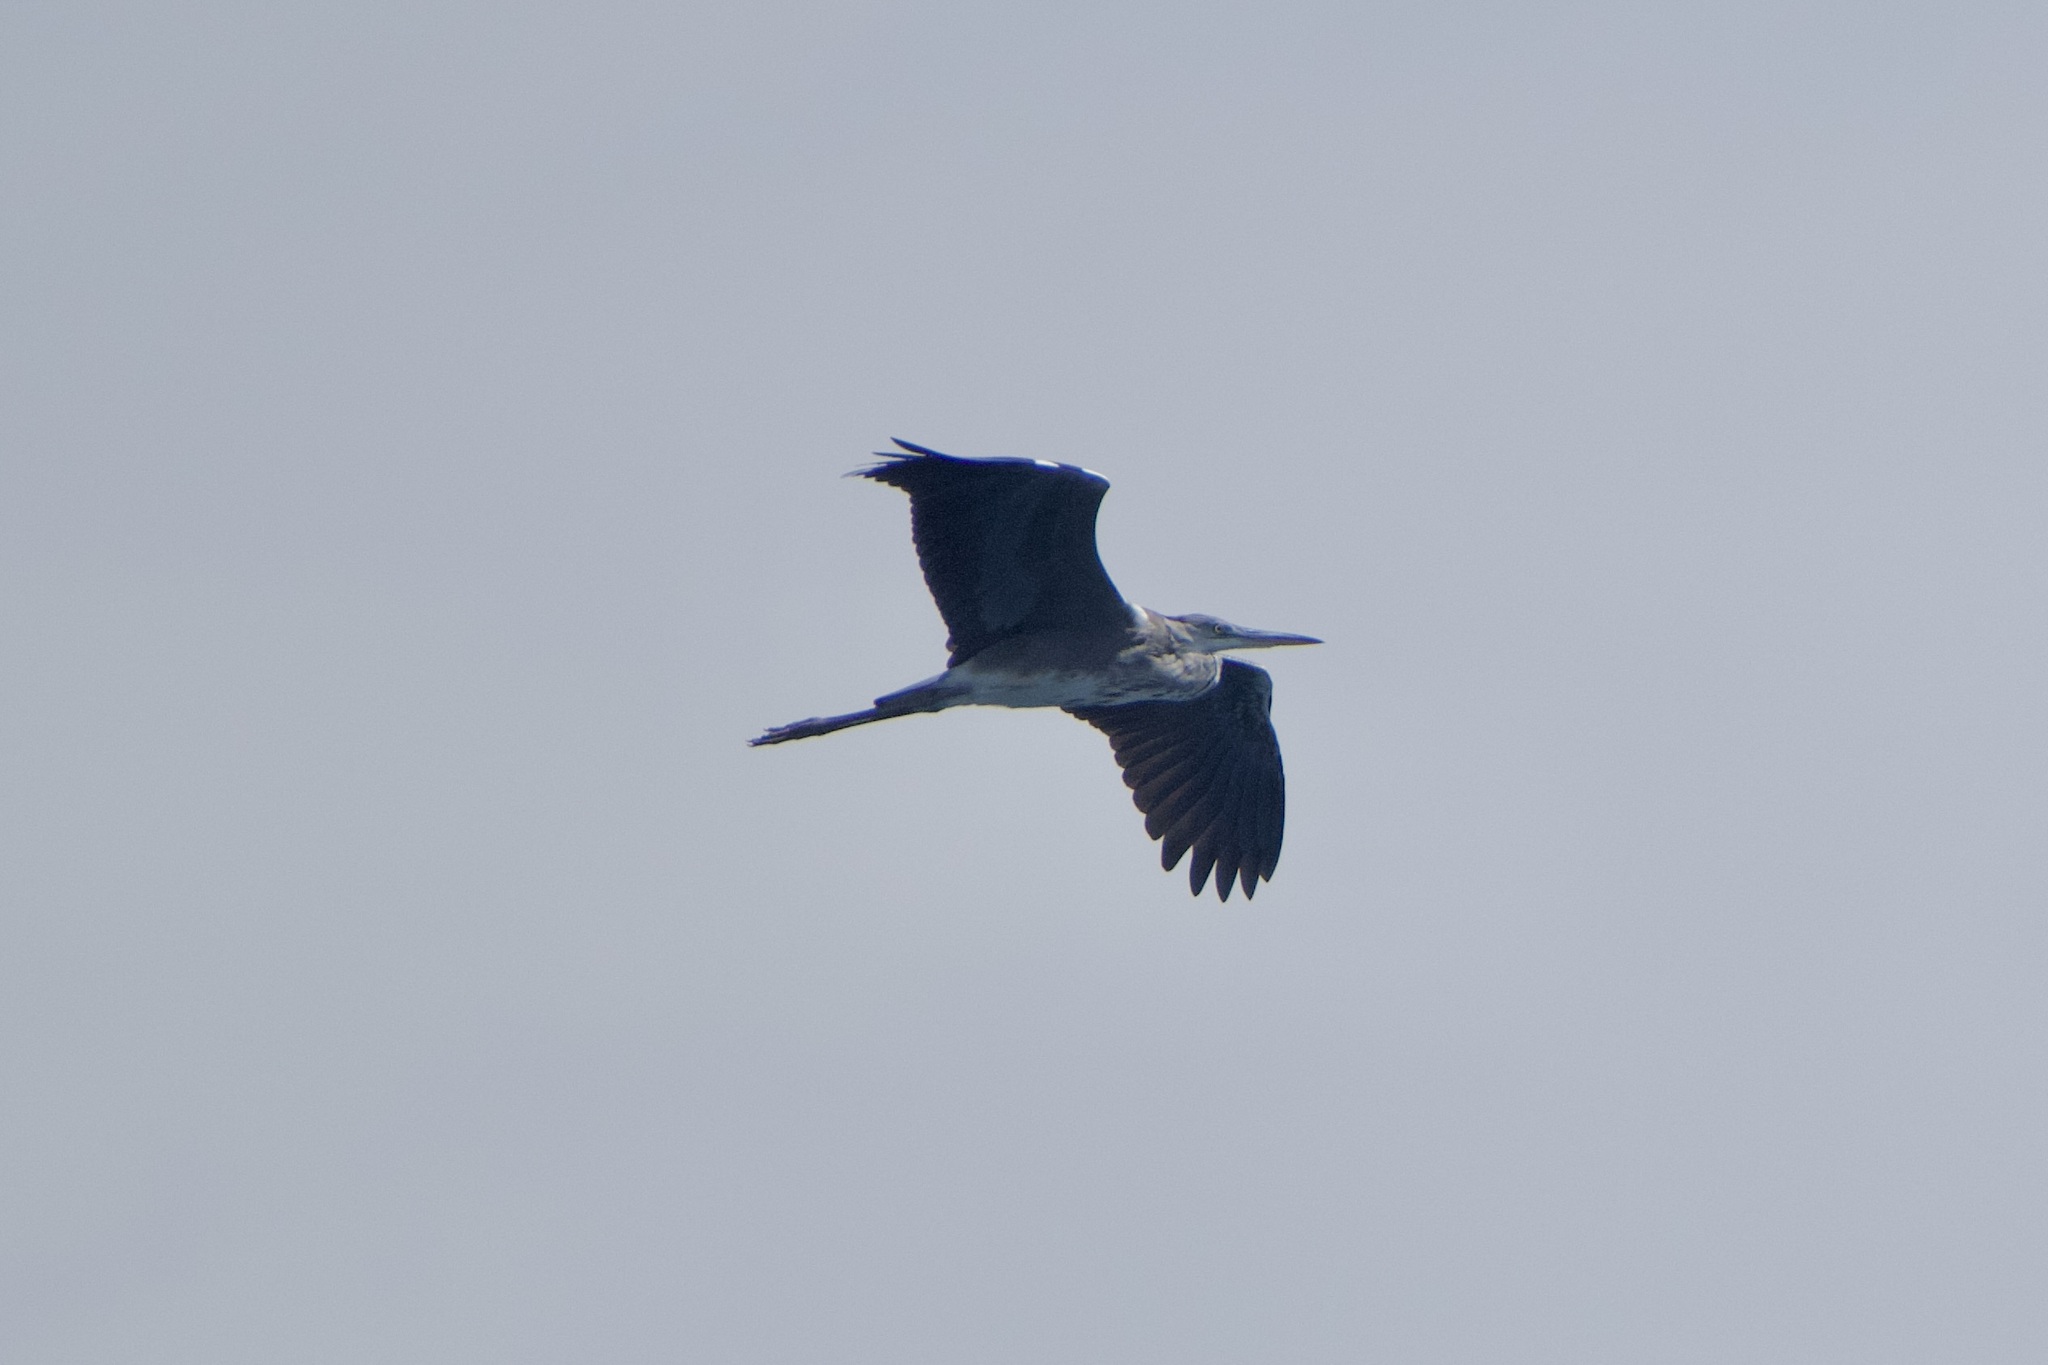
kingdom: Animalia
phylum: Chordata
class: Aves
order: Pelecaniformes
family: Ardeidae
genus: Ardea
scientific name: Ardea cinerea
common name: Grey heron
